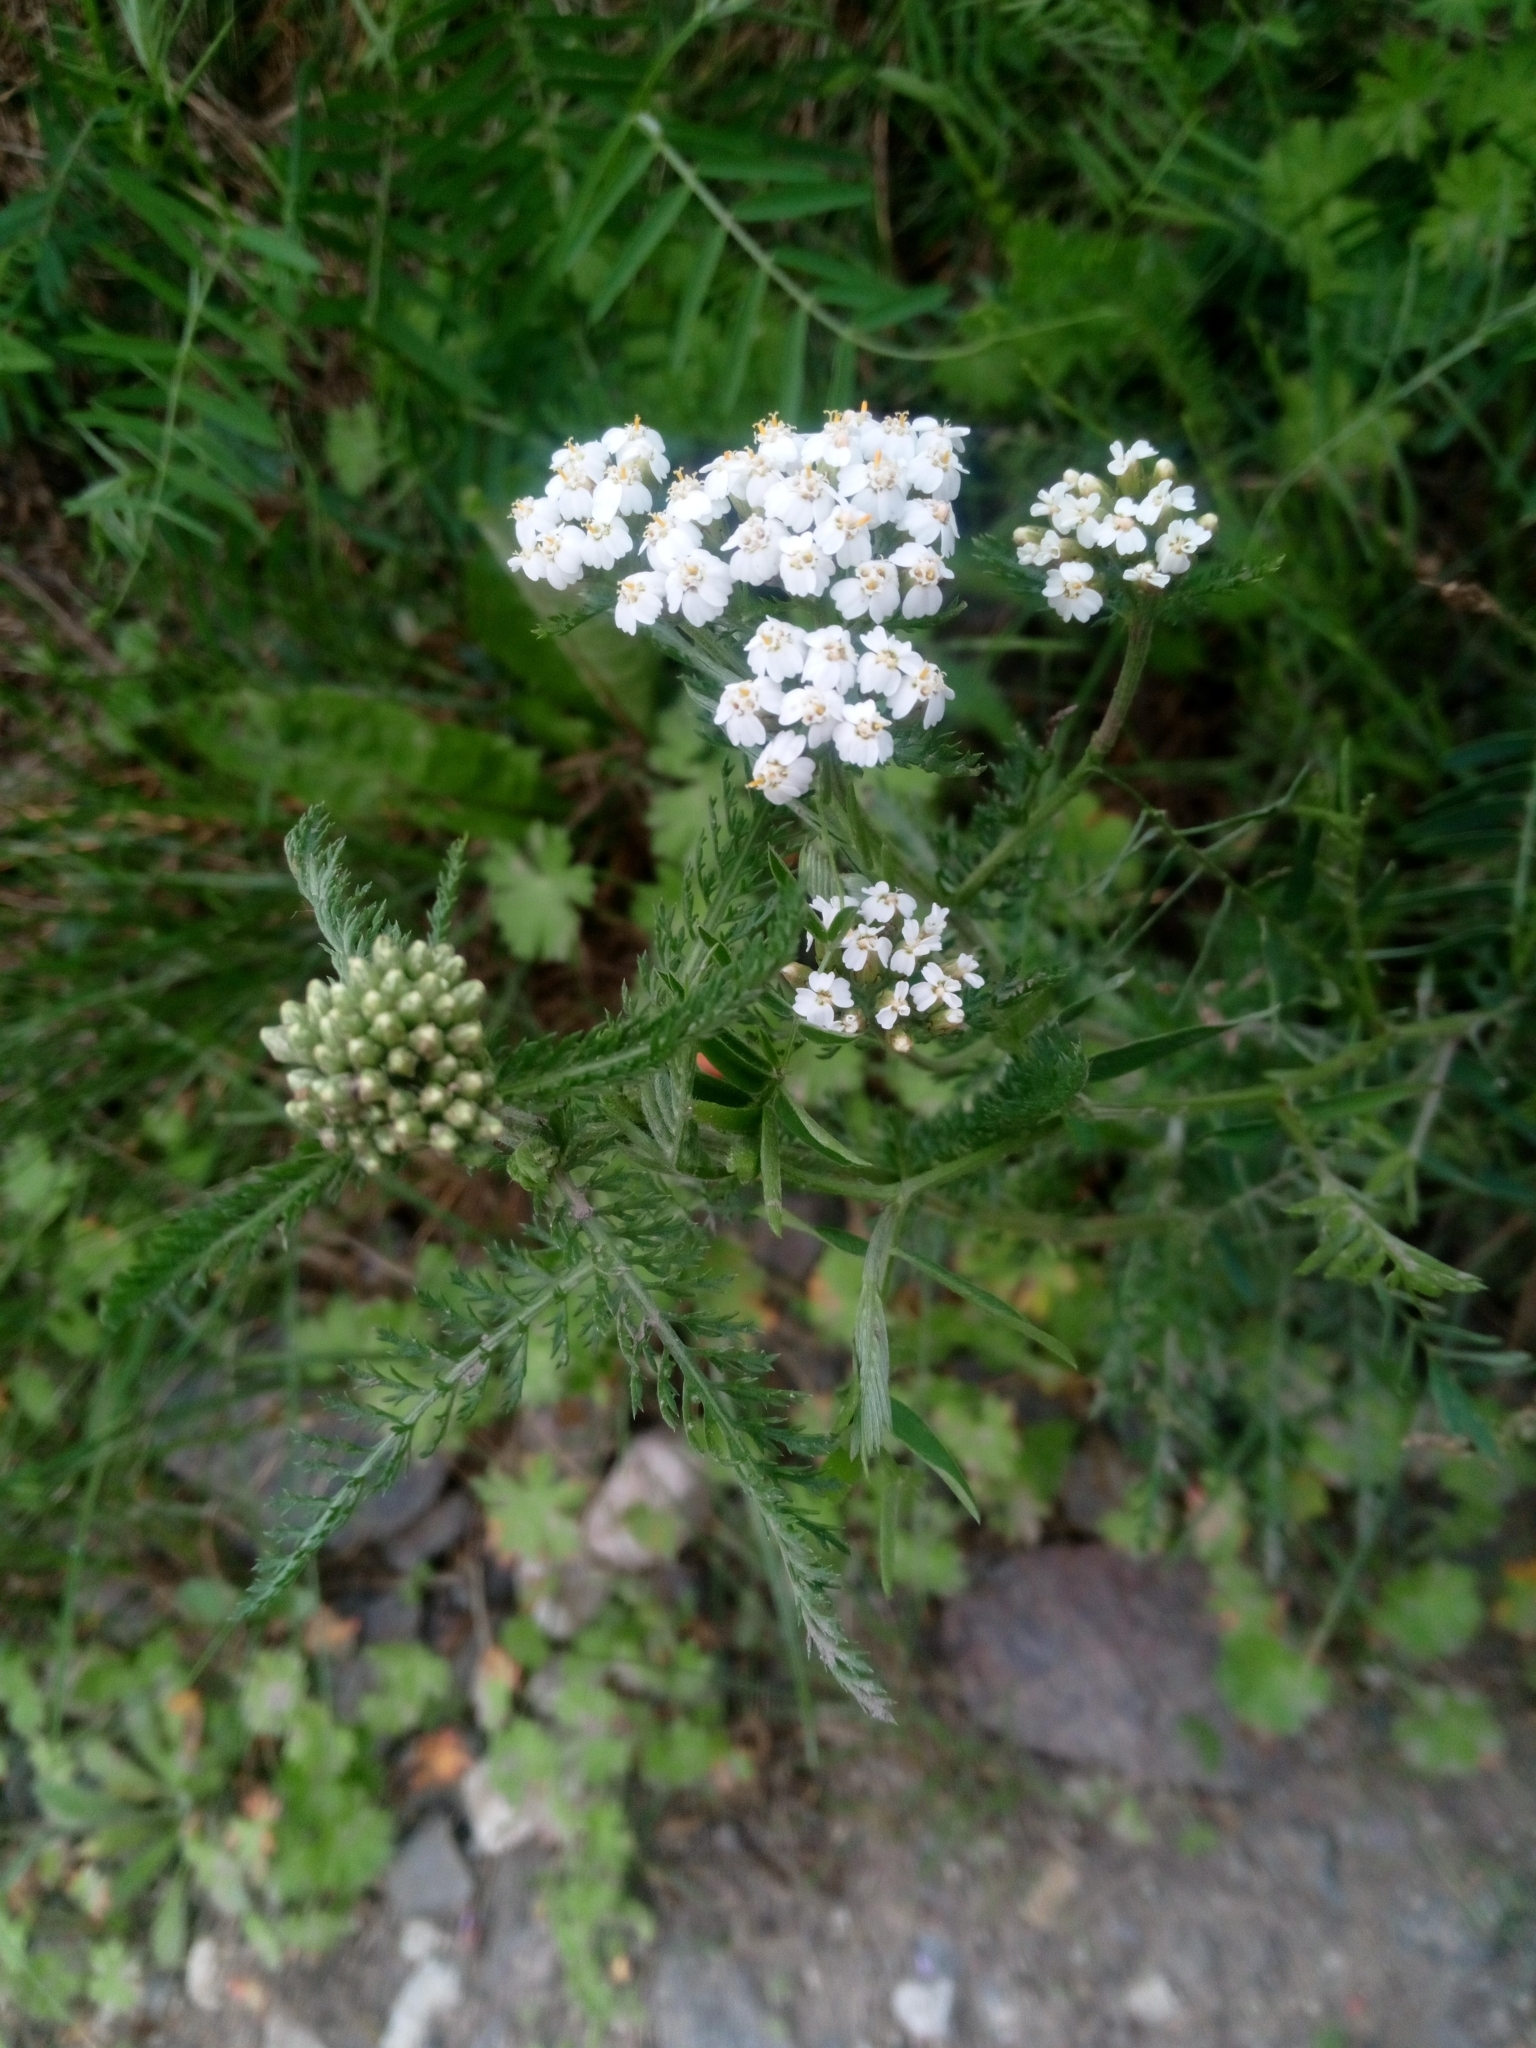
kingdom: Plantae
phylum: Tracheophyta
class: Magnoliopsida
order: Asterales
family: Asteraceae
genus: Achillea
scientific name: Achillea millefolium
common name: Yarrow
